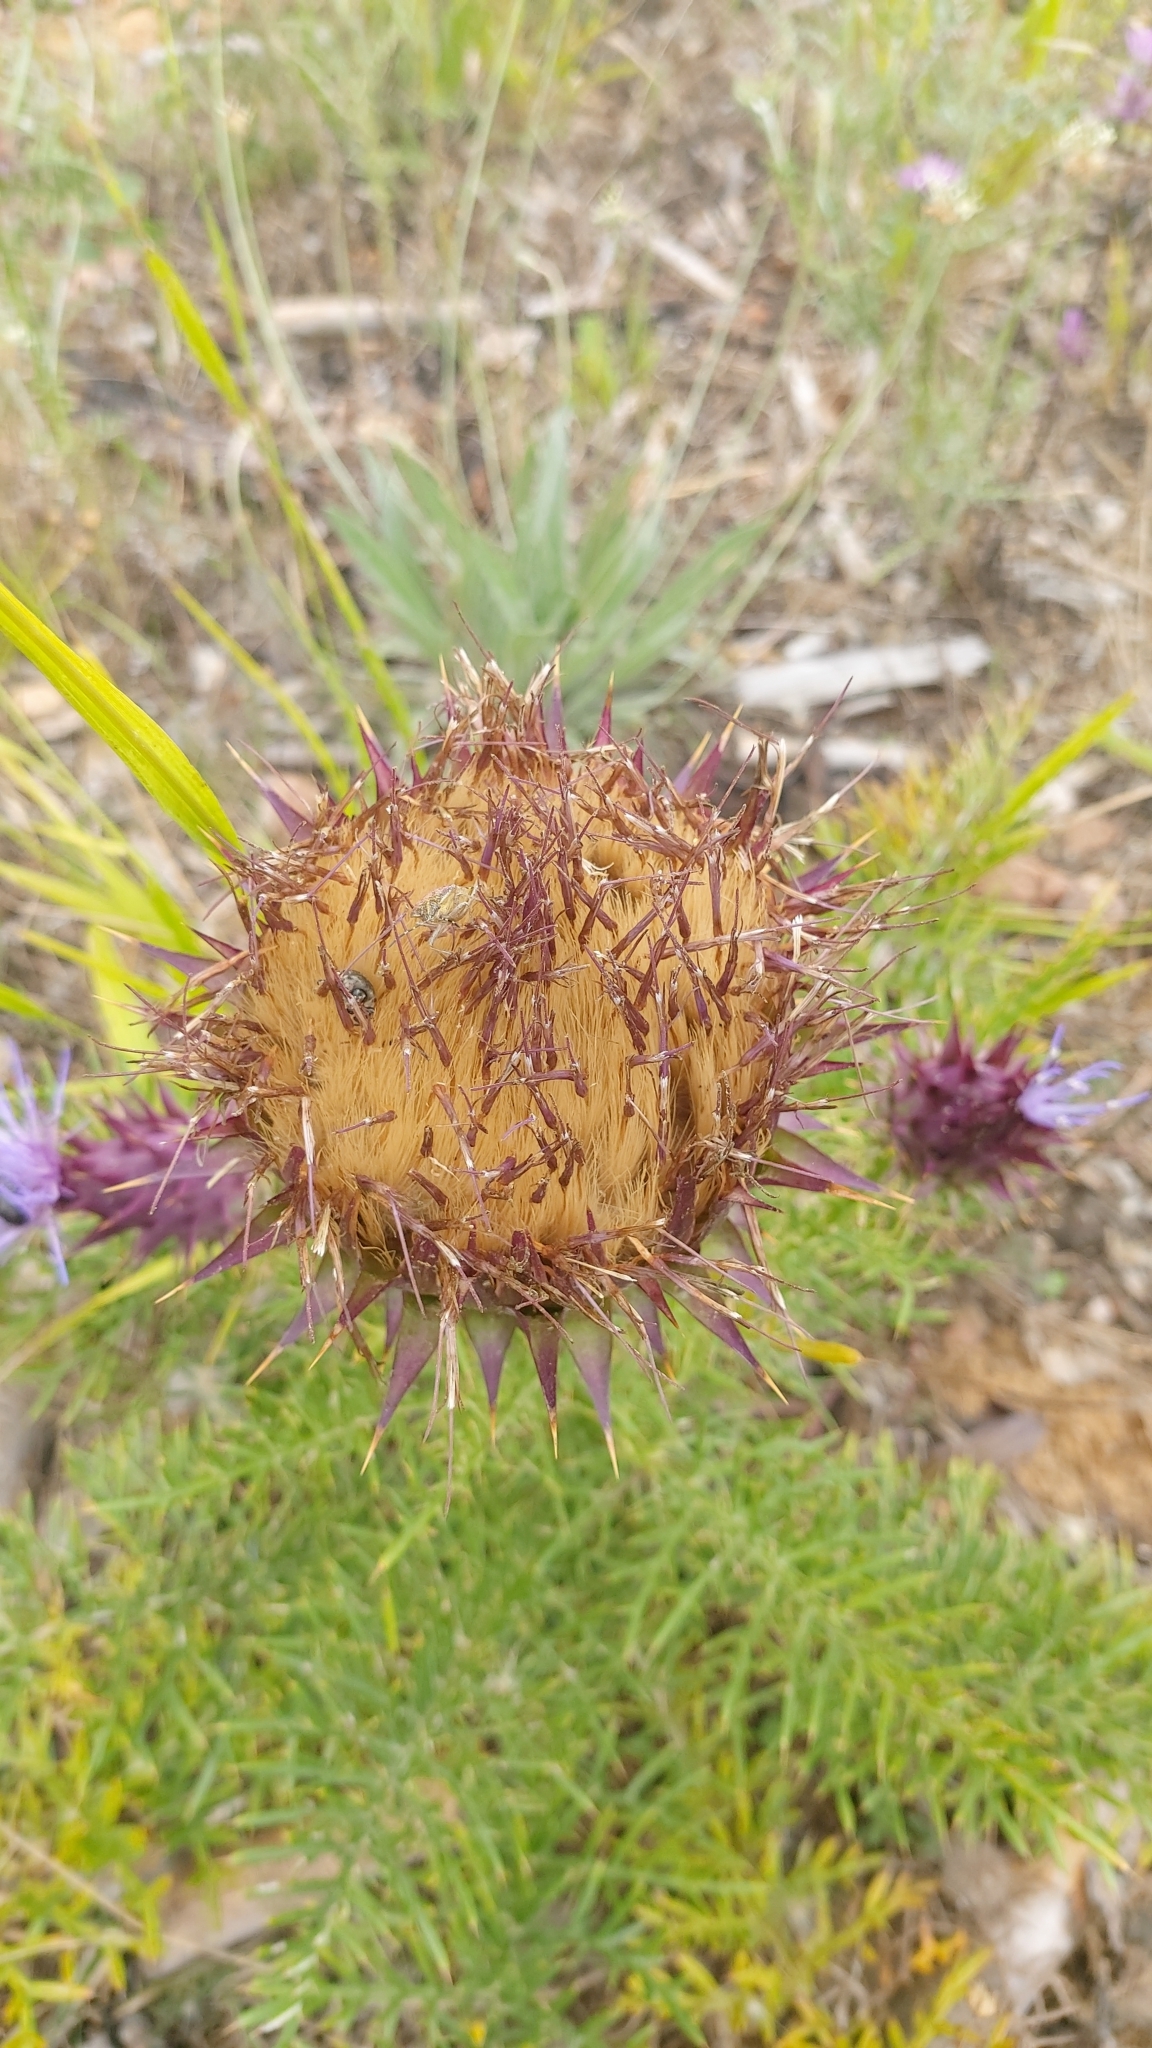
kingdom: Plantae
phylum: Tracheophyta
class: Magnoliopsida
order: Asterales
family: Asteraceae
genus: Cynara
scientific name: Cynara humilis
